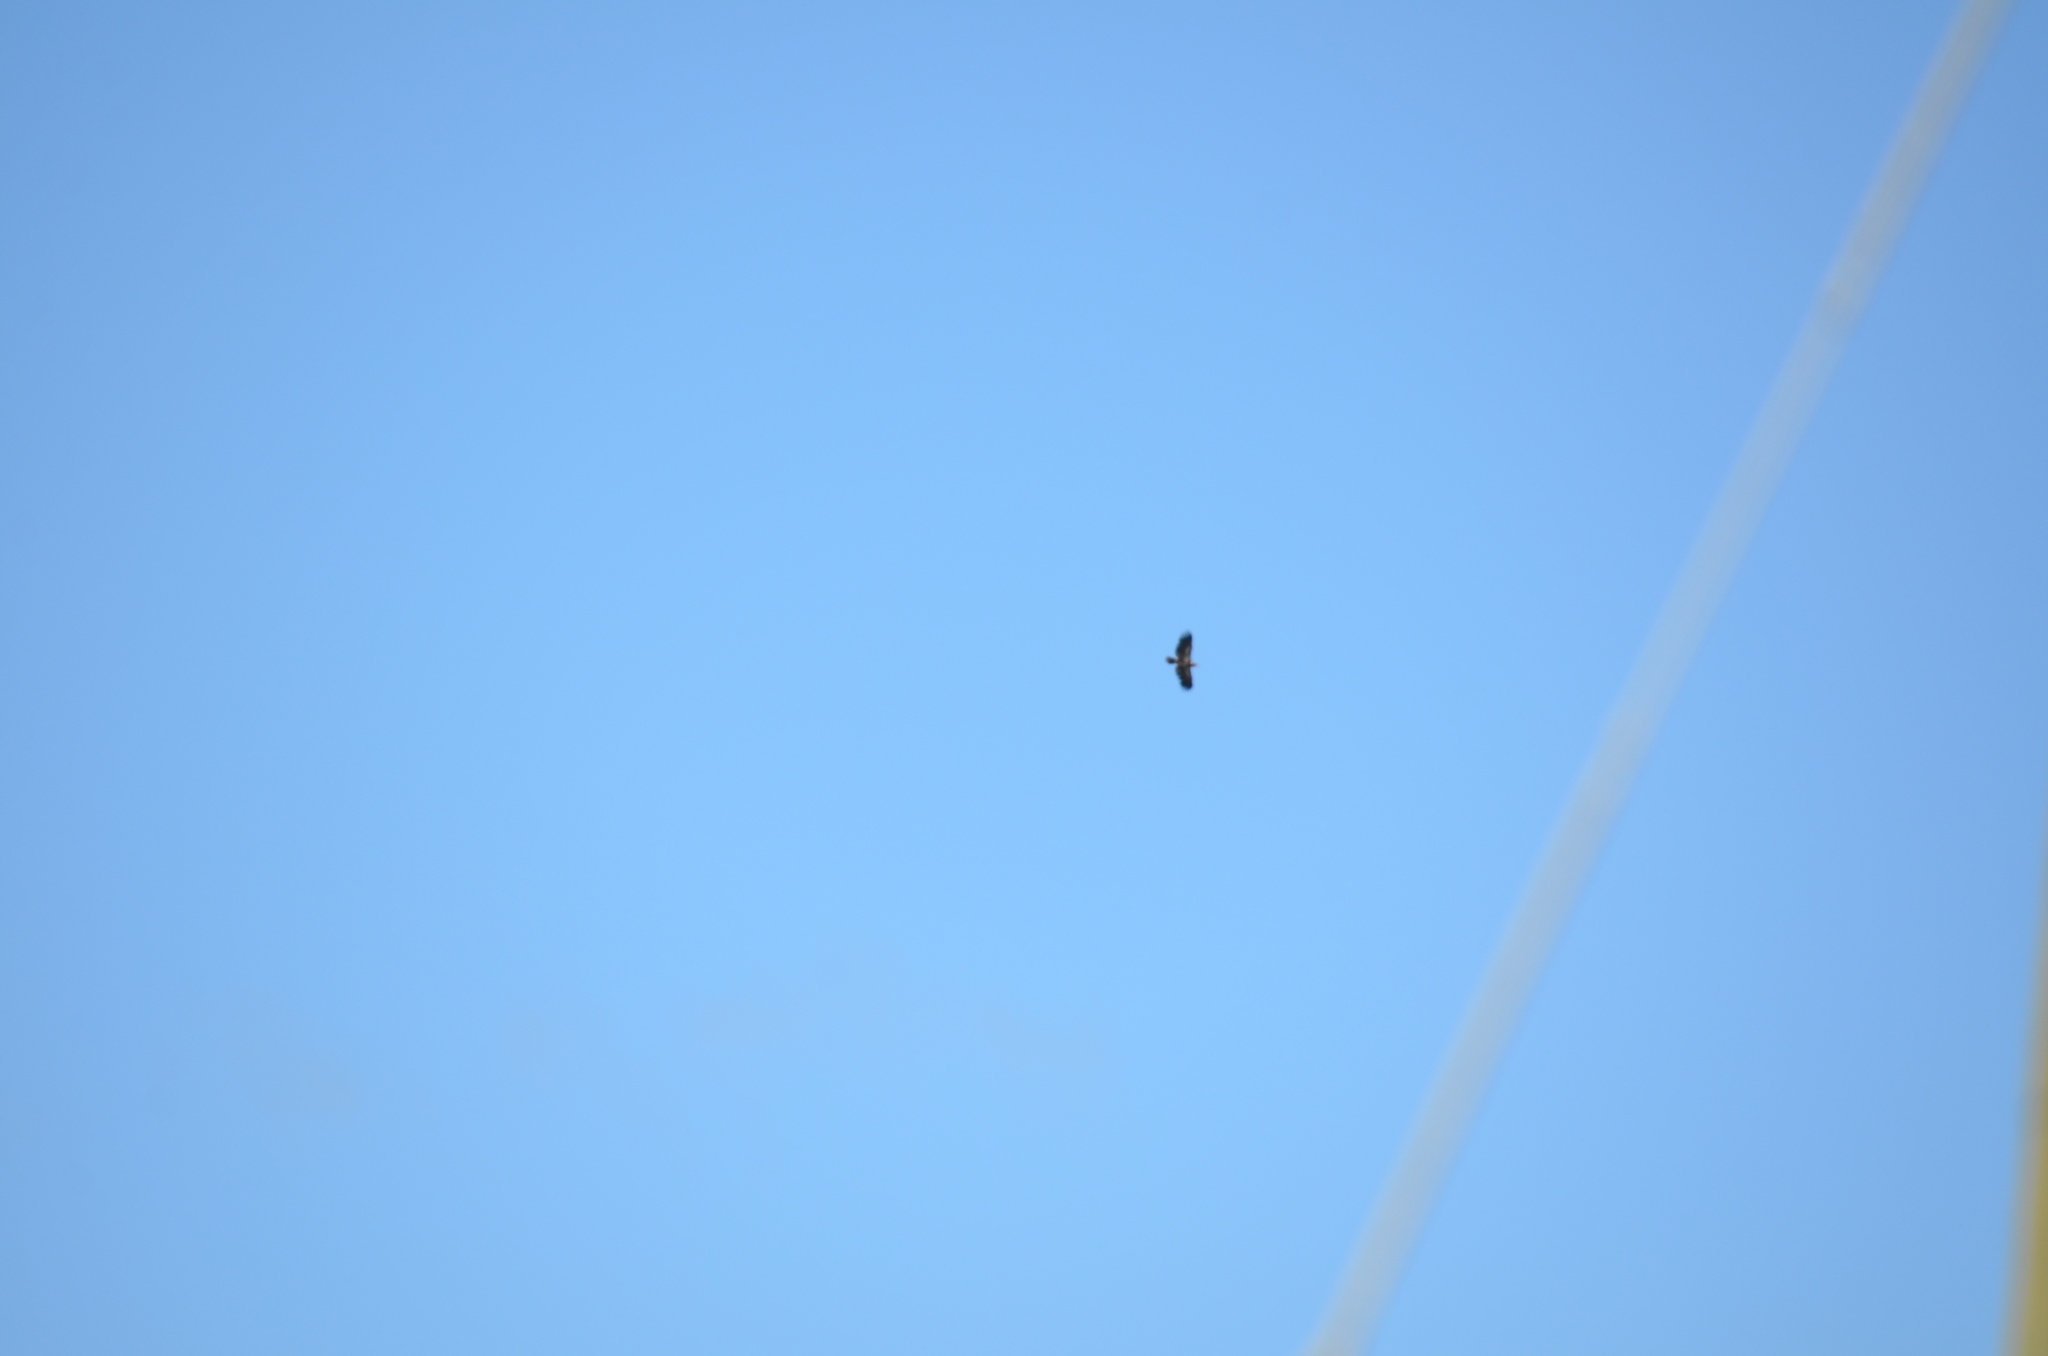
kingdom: Animalia
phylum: Chordata
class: Aves
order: Accipitriformes
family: Accipitridae
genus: Haliaeetus
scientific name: Haliaeetus leucocephalus
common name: Bald eagle
